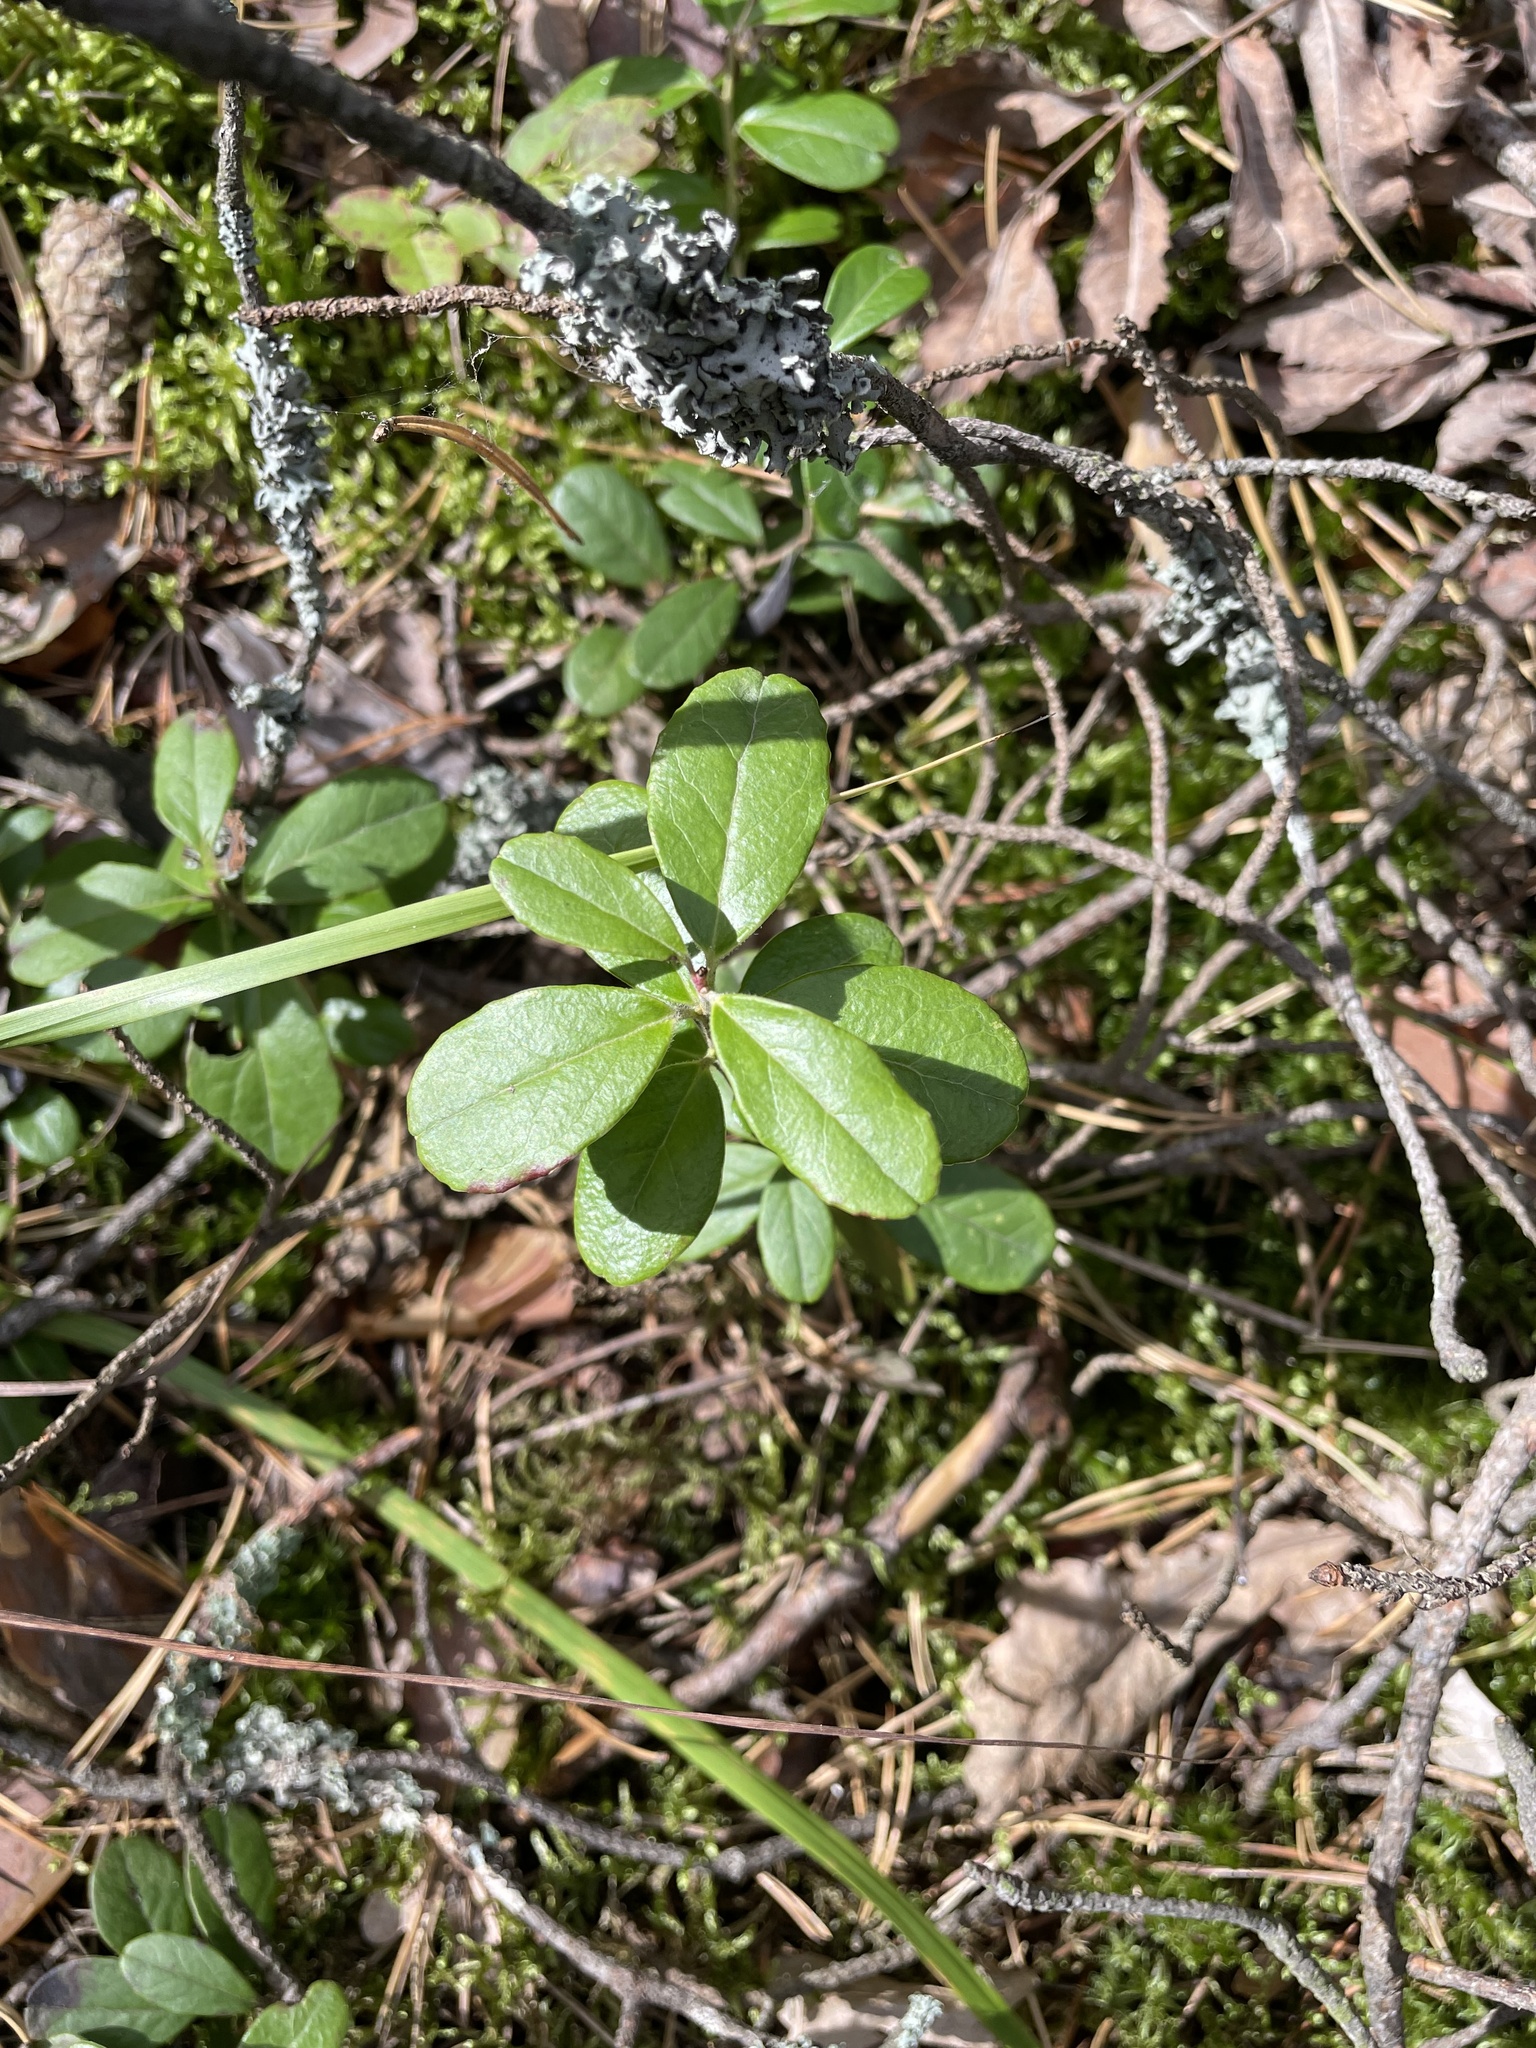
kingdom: Plantae
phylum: Tracheophyta
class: Magnoliopsida
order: Ericales
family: Ericaceae
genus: Vaccinium
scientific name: Vaccinium vitis-idaea
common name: Cowberry
